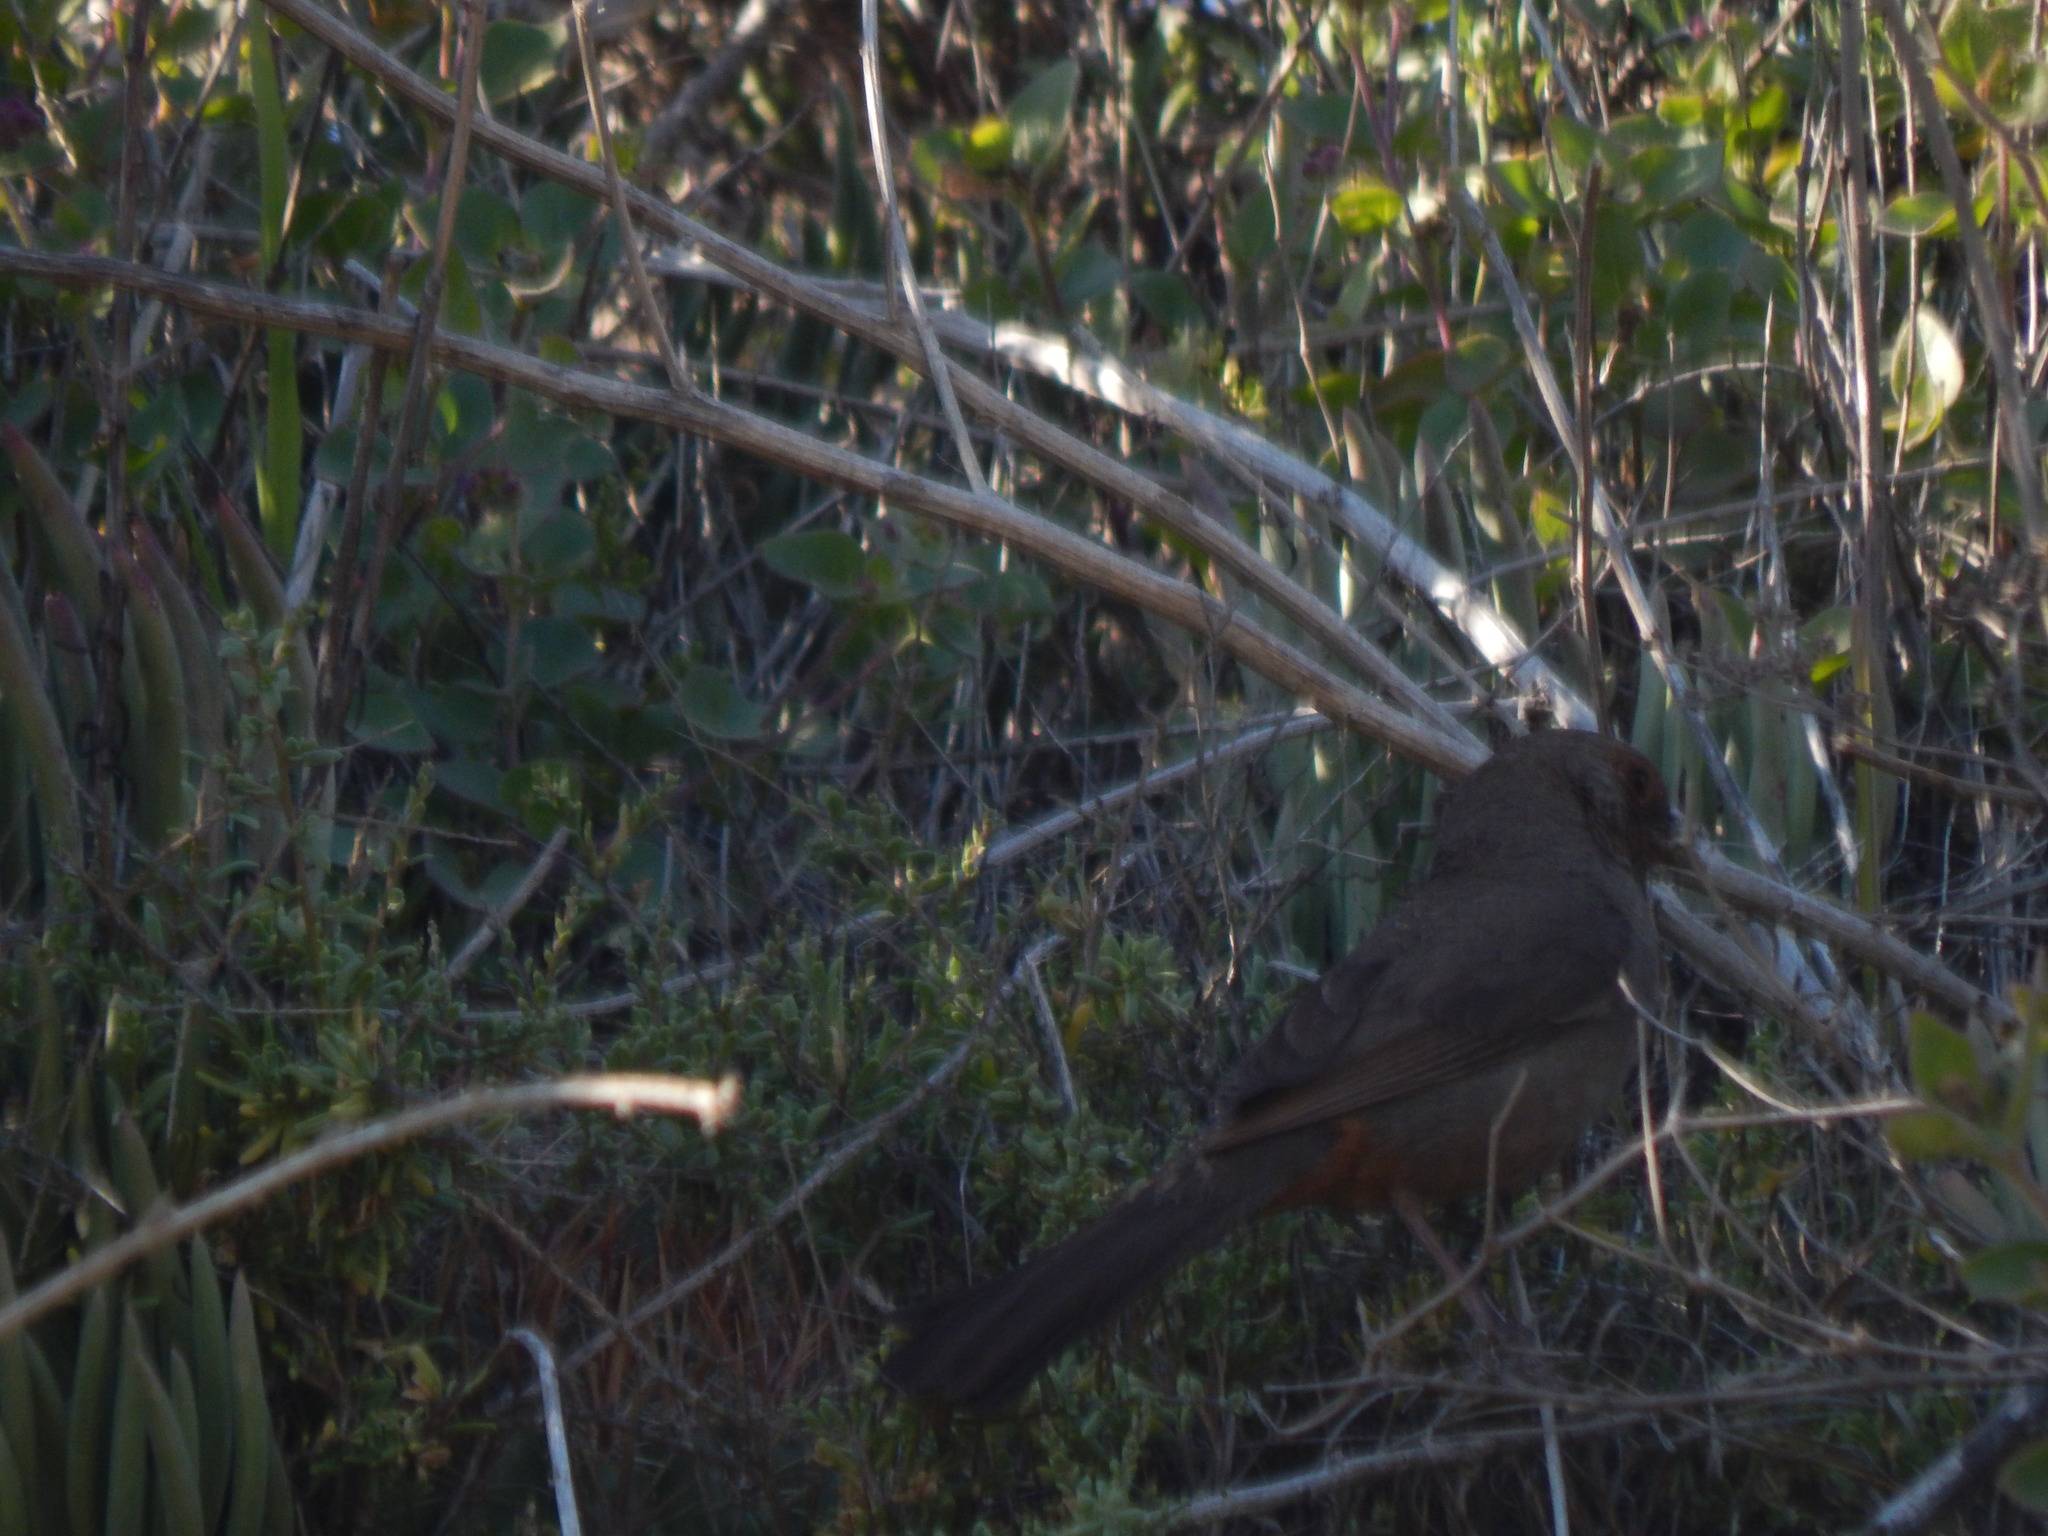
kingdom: Animalia
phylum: Chordata
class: Aves
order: Passeriformes
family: Passerellidae
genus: Melozone
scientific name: Melozone crissalis
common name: California towhee
